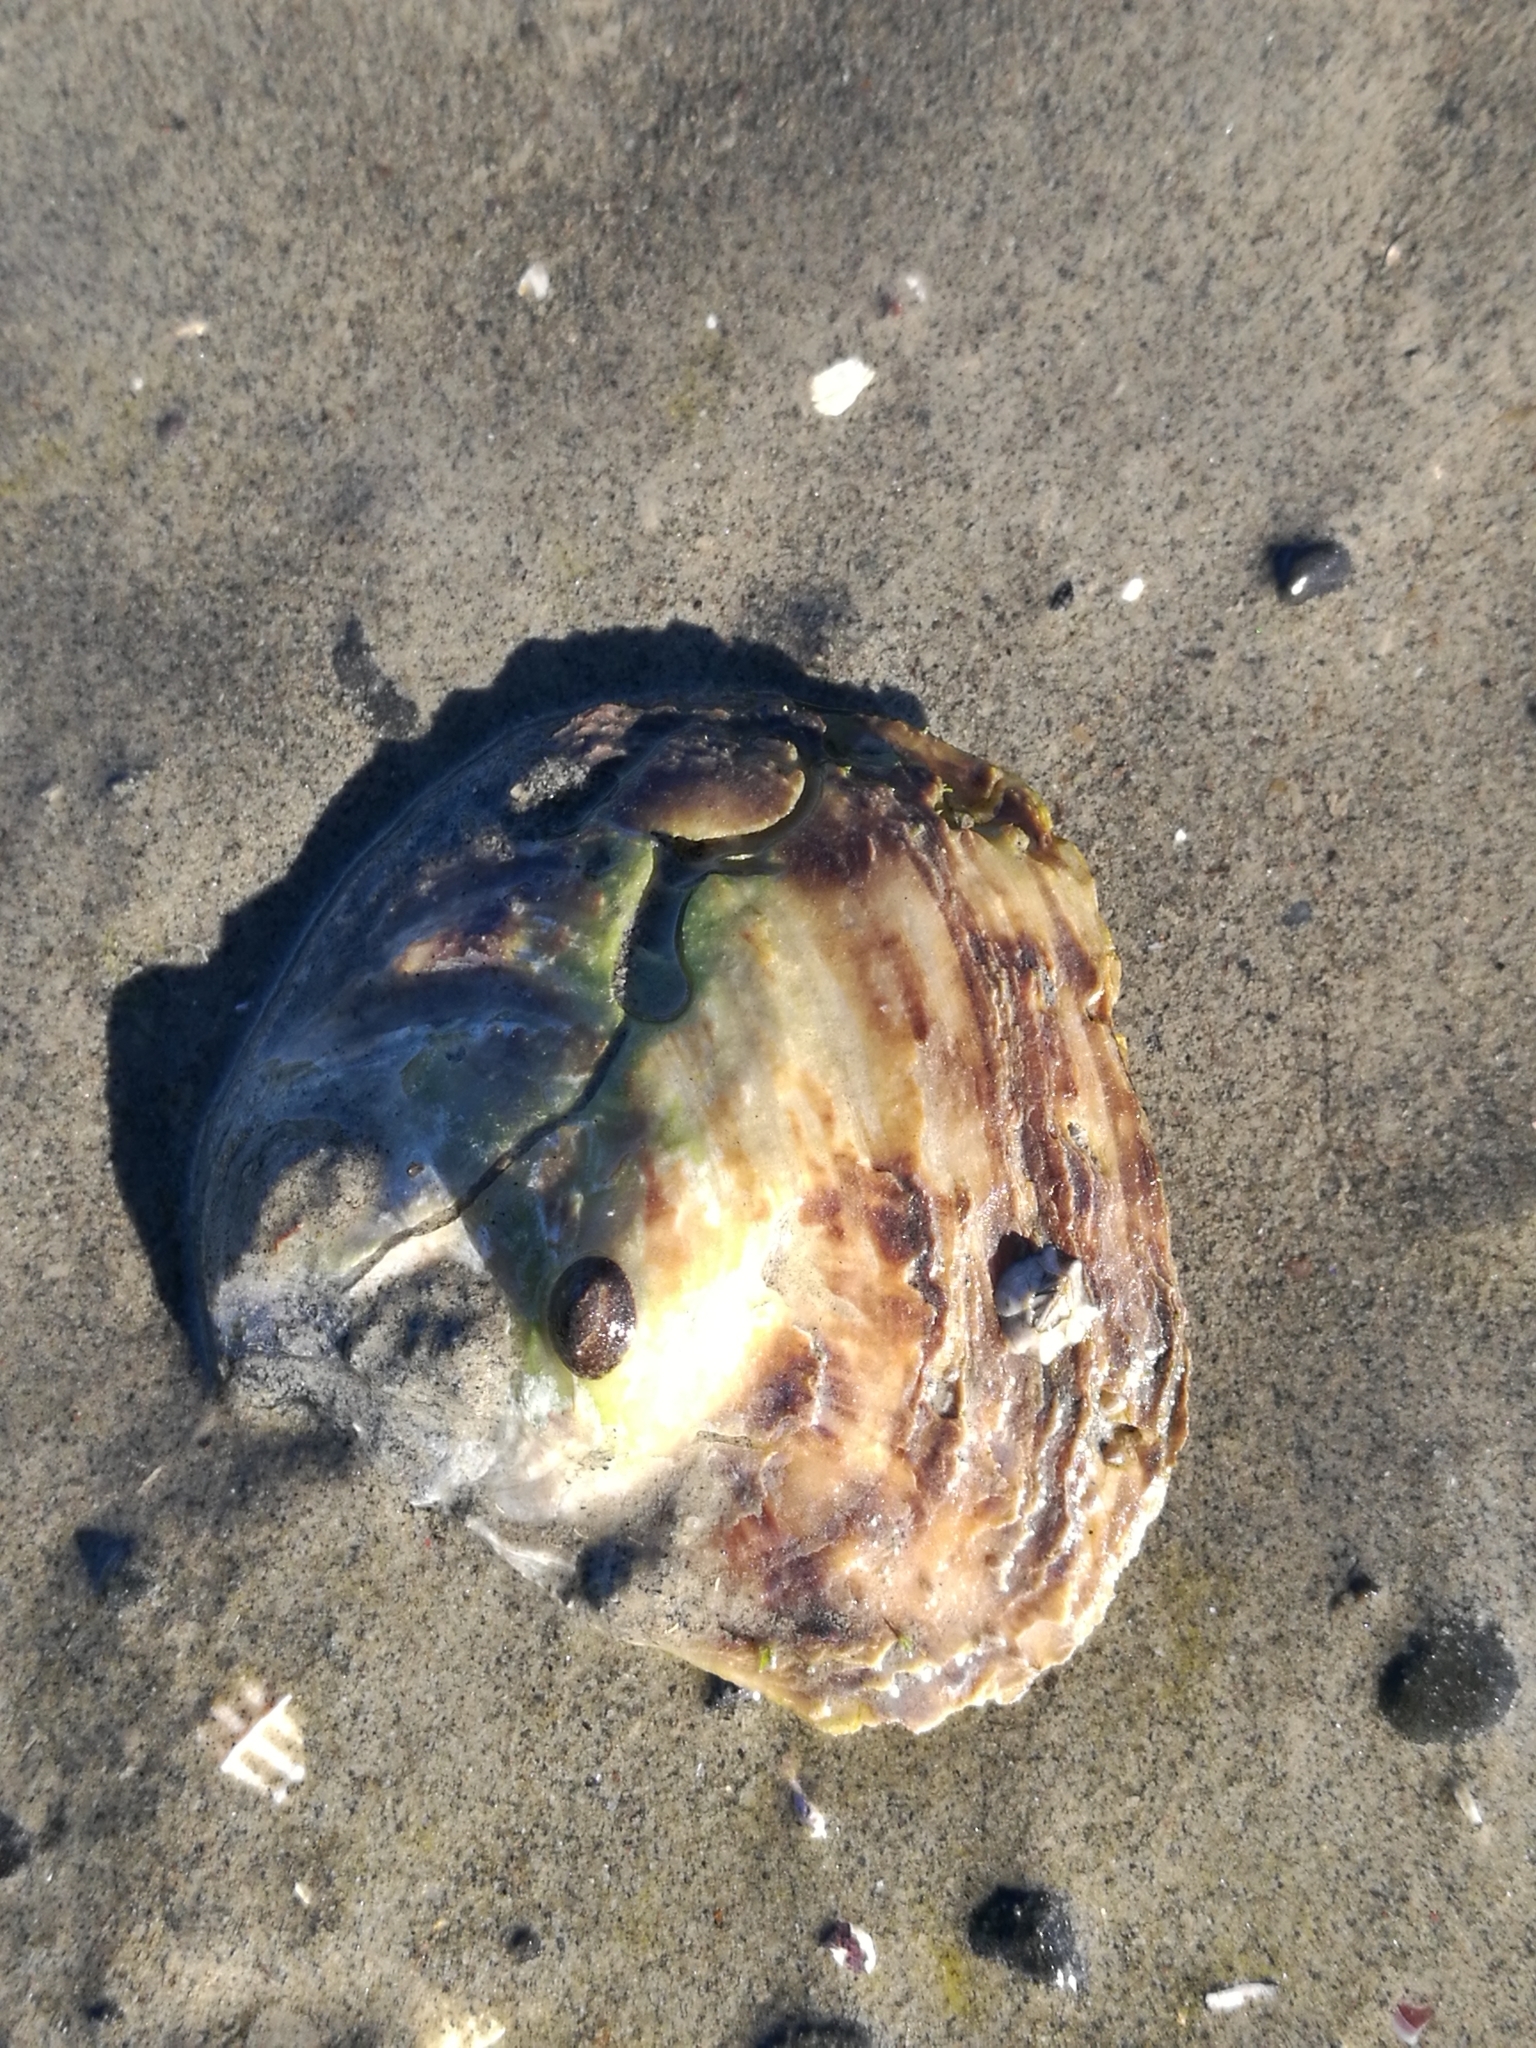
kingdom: Animalia
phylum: Mollusca
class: Bivalvia
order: Ostreida
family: Ostreidae
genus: Ostrea
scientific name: Ostrea chilensis
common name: Chilean oyster
